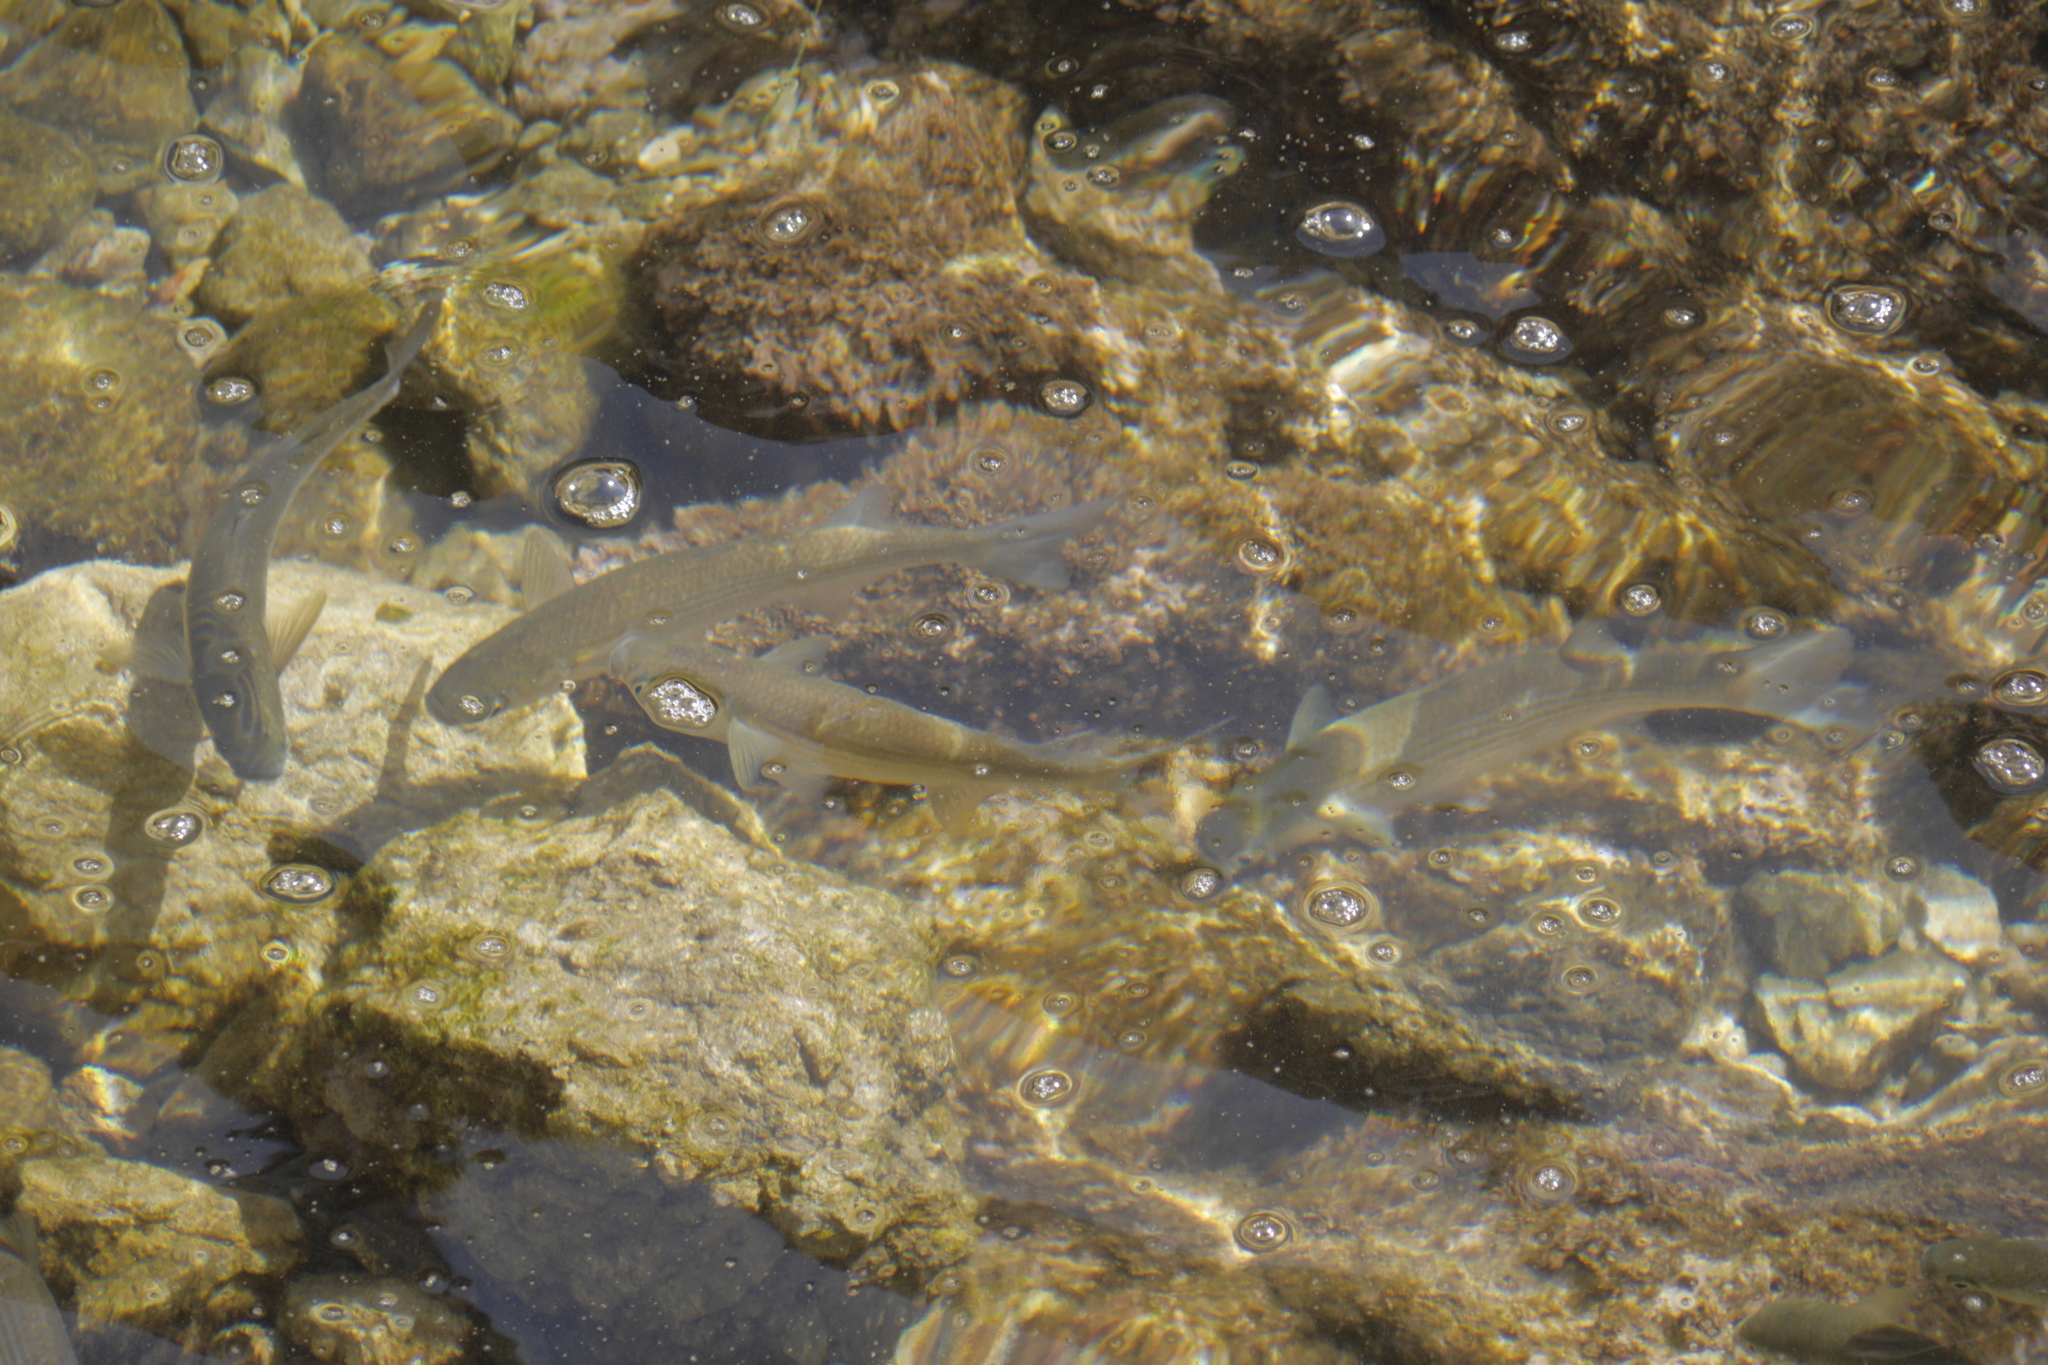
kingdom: Animalia
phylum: Chordata
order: Mugiliformes
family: Mugilidae
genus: Oedalechilus
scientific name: Oedalechilus labeo
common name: Boxlip mullet
